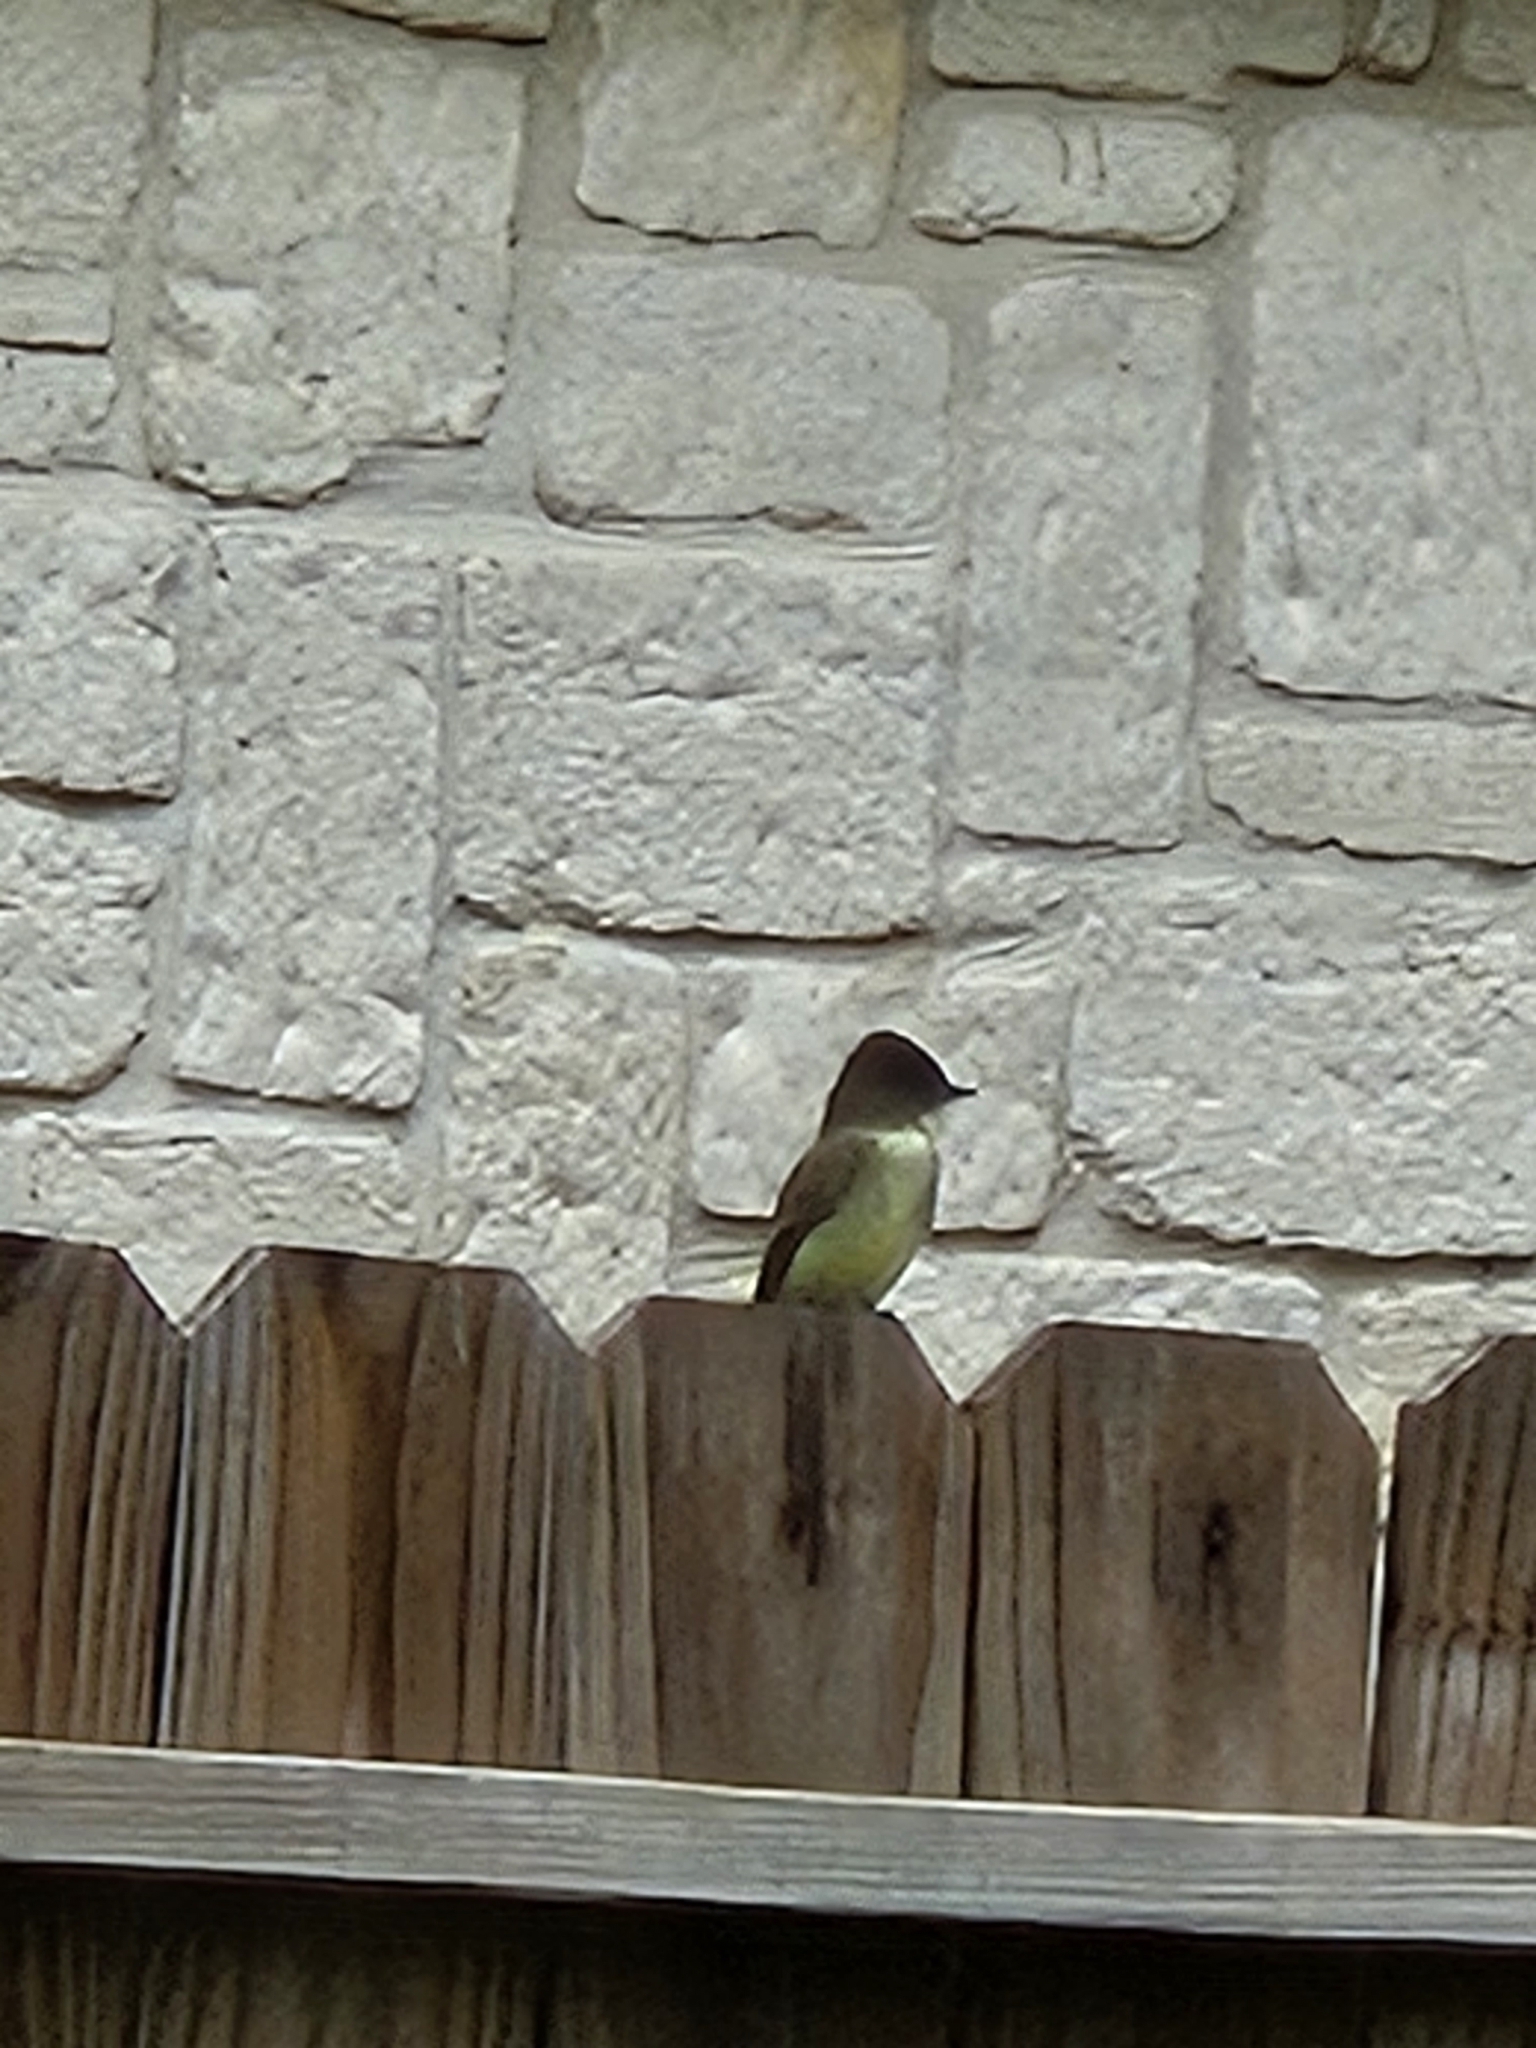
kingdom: Animalia
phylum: Chordata
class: Aves
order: Passeriformes
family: Tyrannidae
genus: Sayornis
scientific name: Sayornis phoebe
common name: Eastern phoebe
